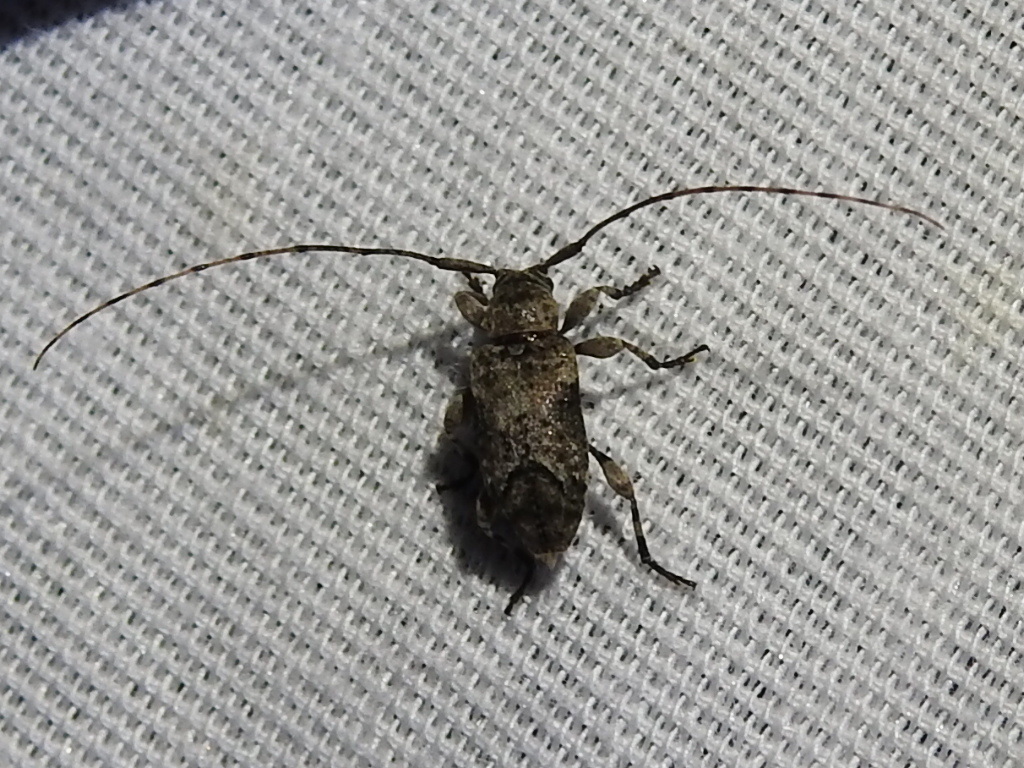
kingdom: Animalia
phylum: Arthropoda
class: Insecta
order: Coleoptera
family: Cerambycidae
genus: Sternidius
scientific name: Sternidius mimeticus
